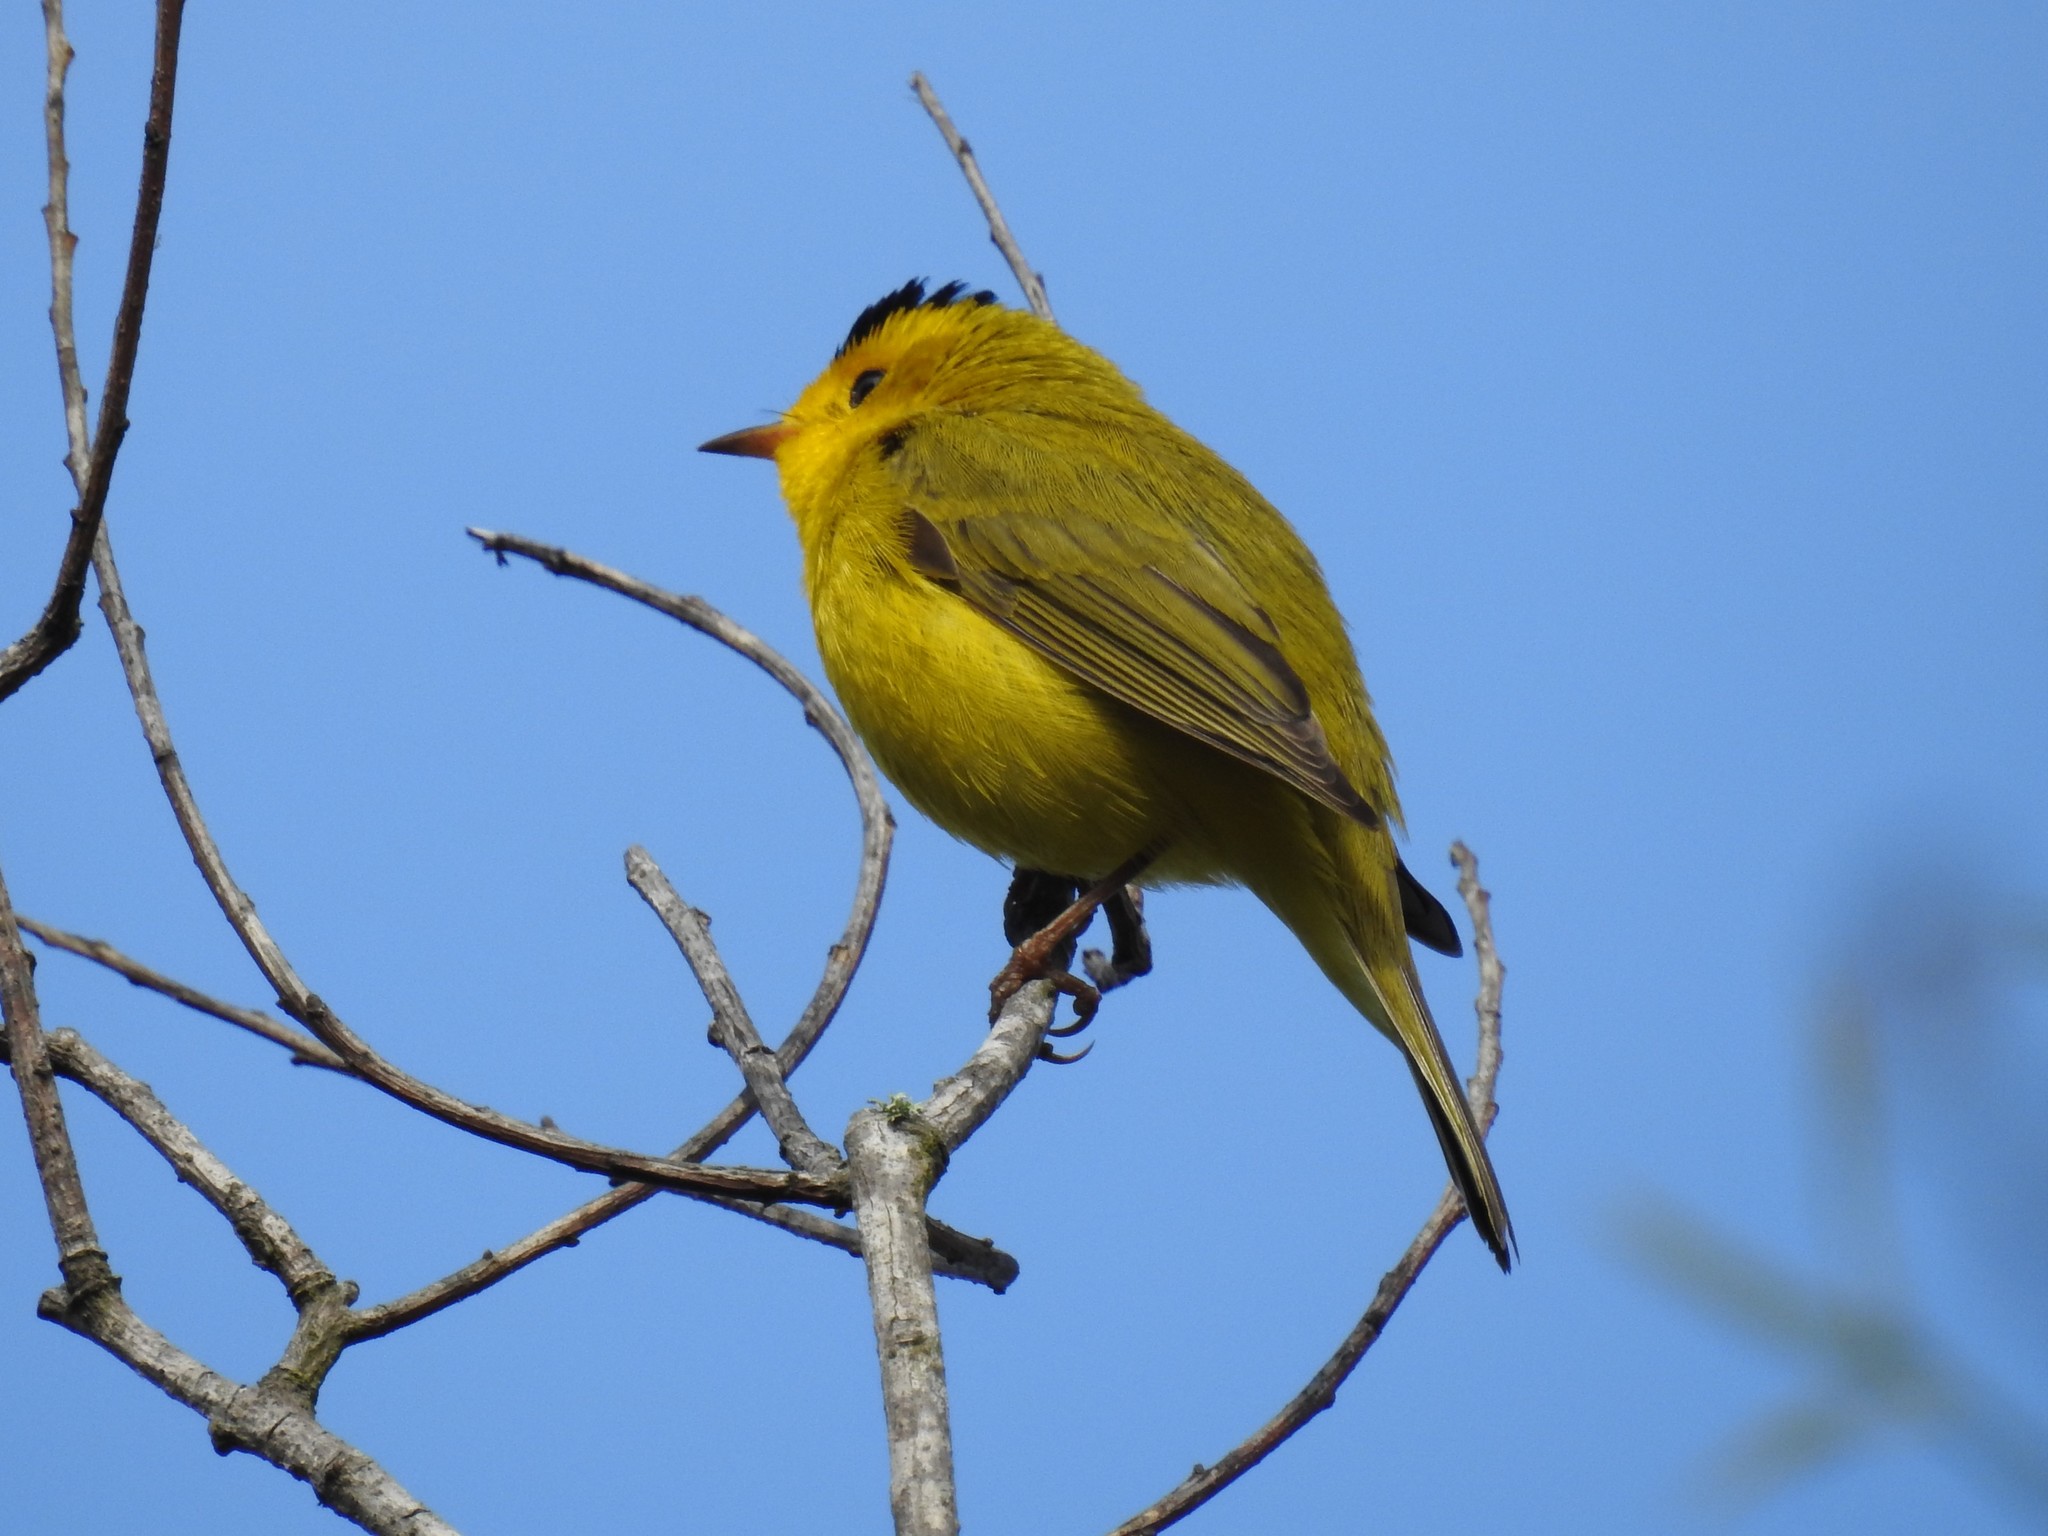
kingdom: Animalia
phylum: Chordata
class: Aves
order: Passeriformes
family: Parulidae
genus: Cardellina
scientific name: Cardellina pusilla
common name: Wilson's warbler
